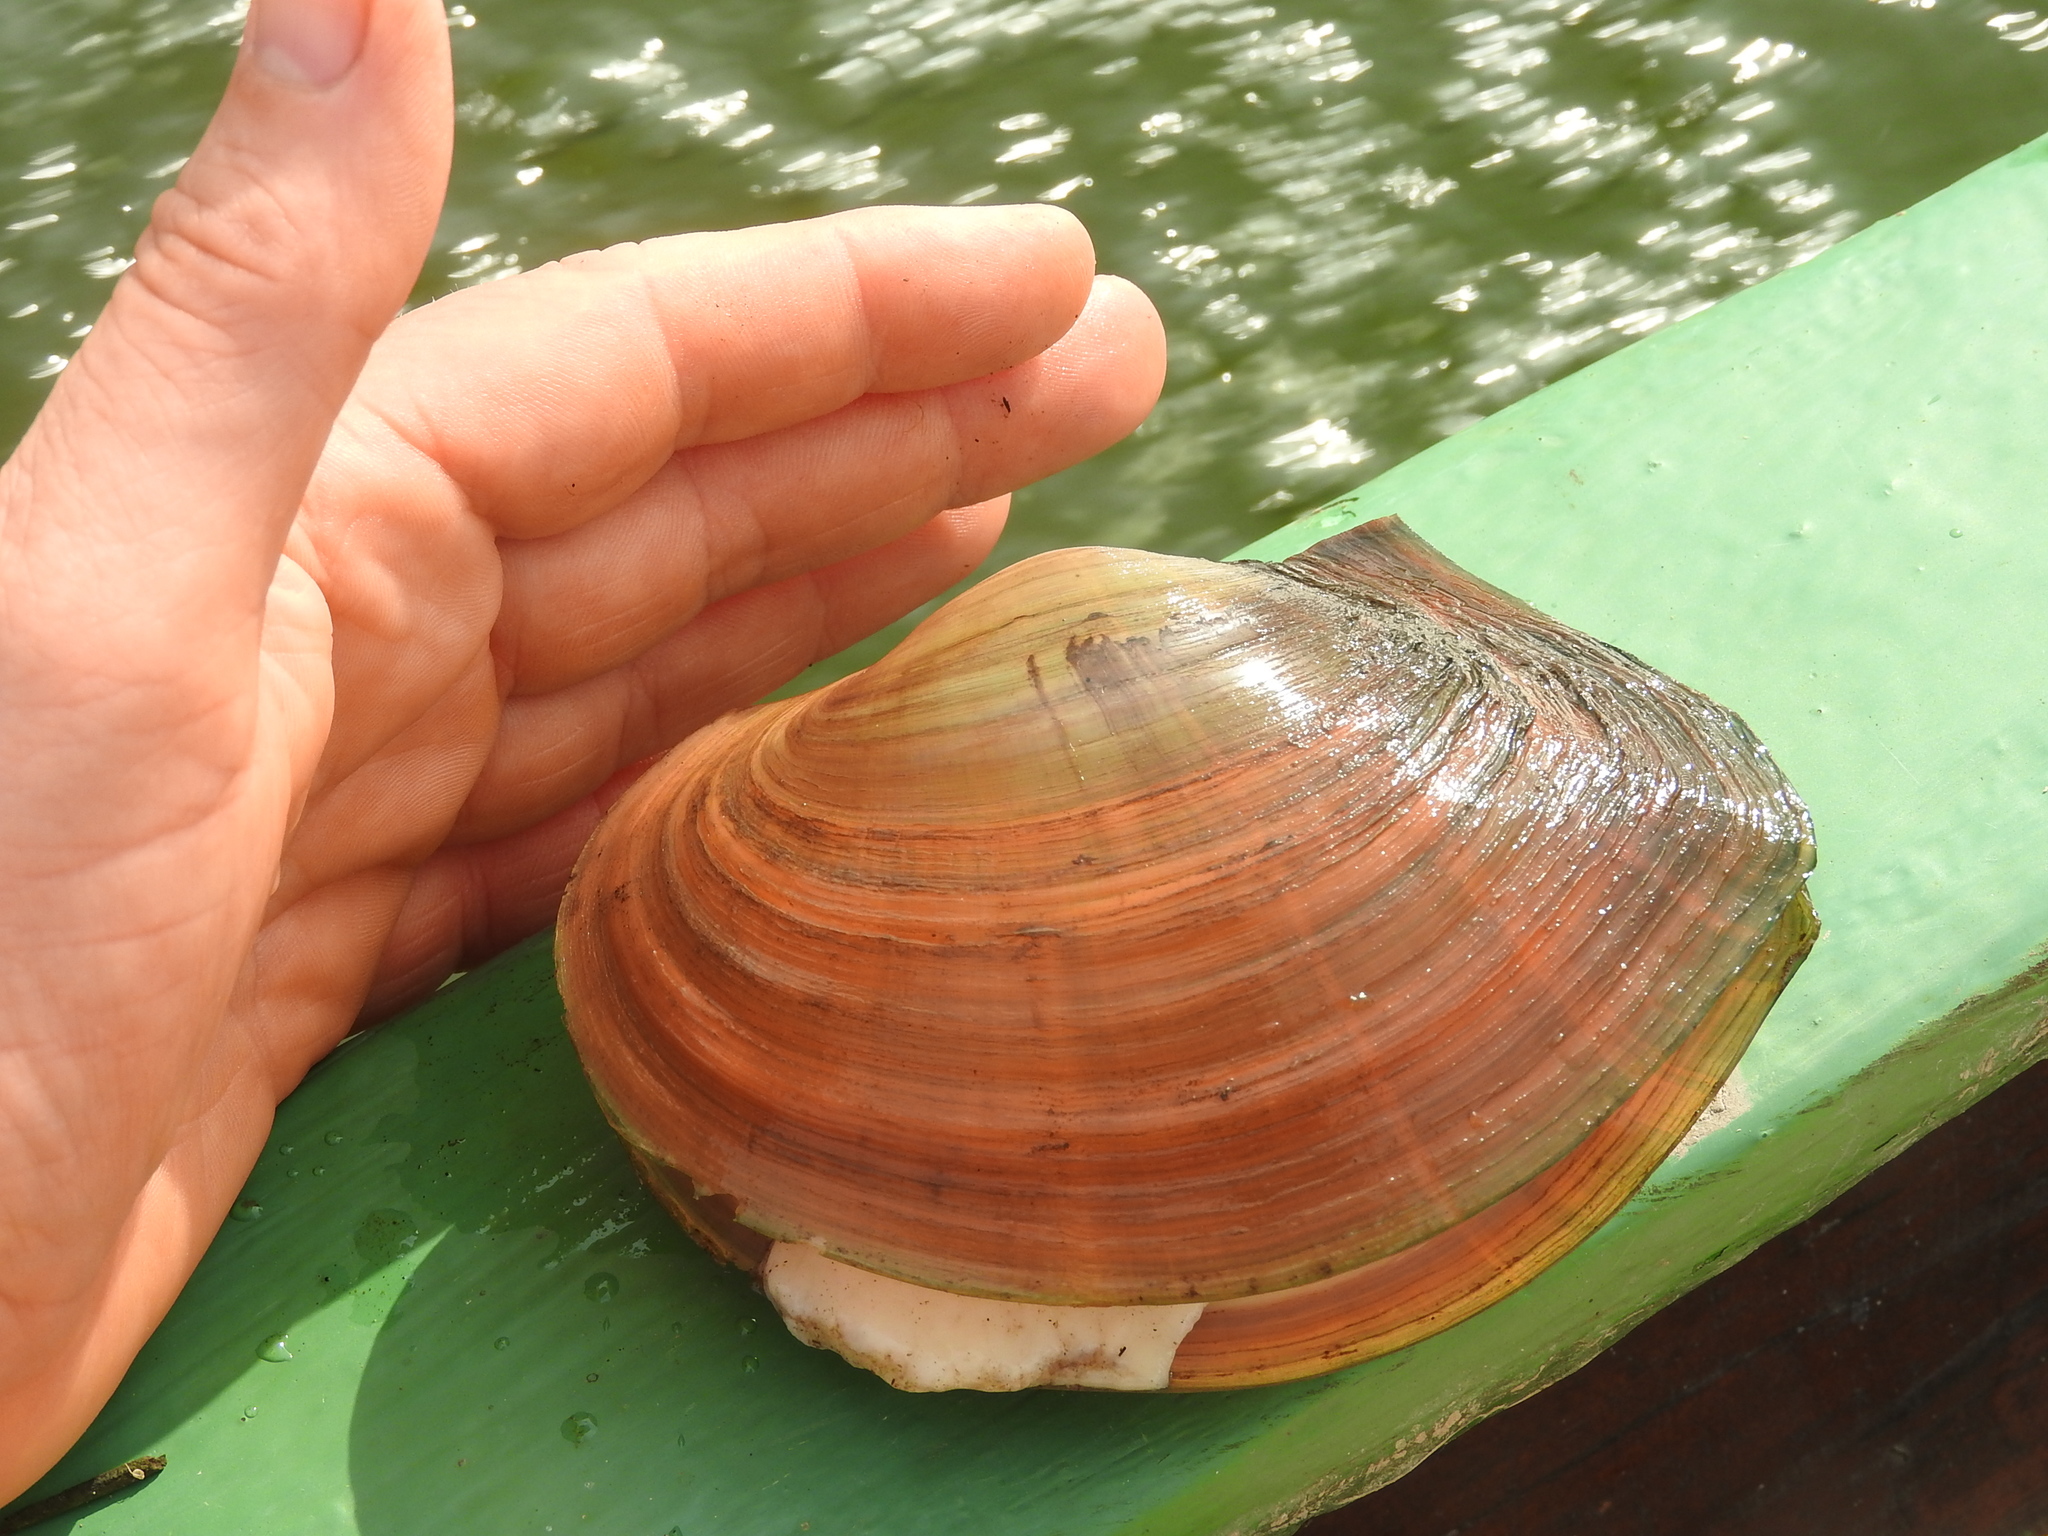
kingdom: Animalia
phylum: Mollusca
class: Bivalvia
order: Unionida
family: Unionidae
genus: Sinanodonta
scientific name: Sinanodonta woodiana
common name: Chinese pond mussel
